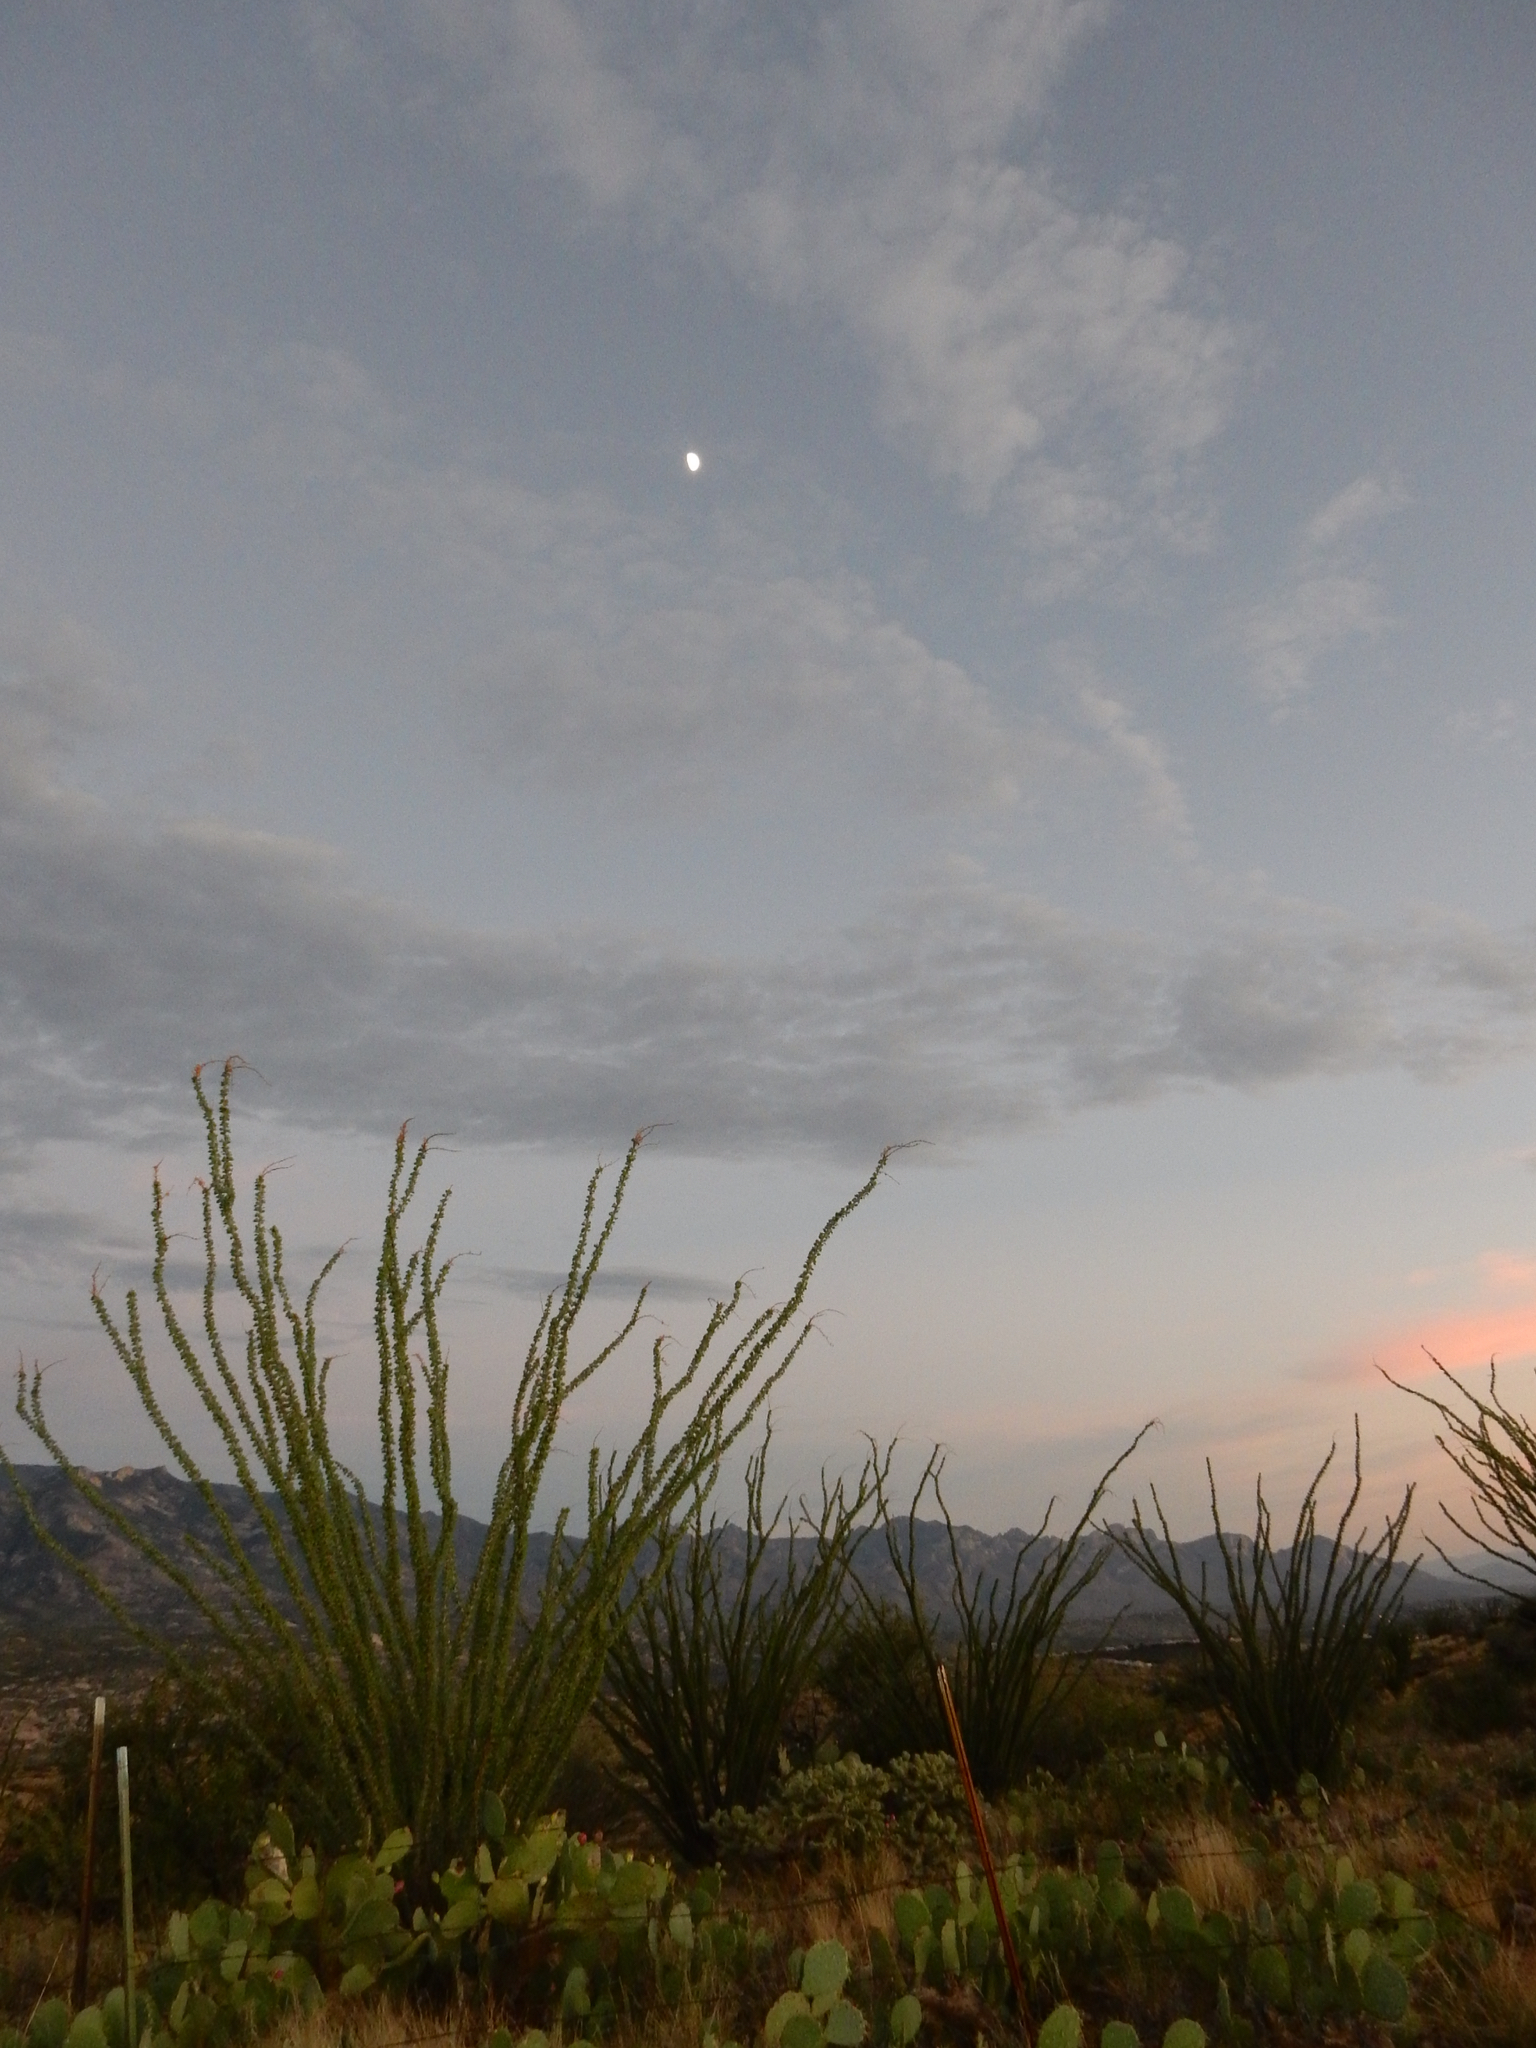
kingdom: Plantae
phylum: Tracheophyta
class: Magnoliopsida
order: Ericales
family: Fouquieriaceae
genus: Fouquieria
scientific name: Fouquieria splendens
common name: Vine-cactus
